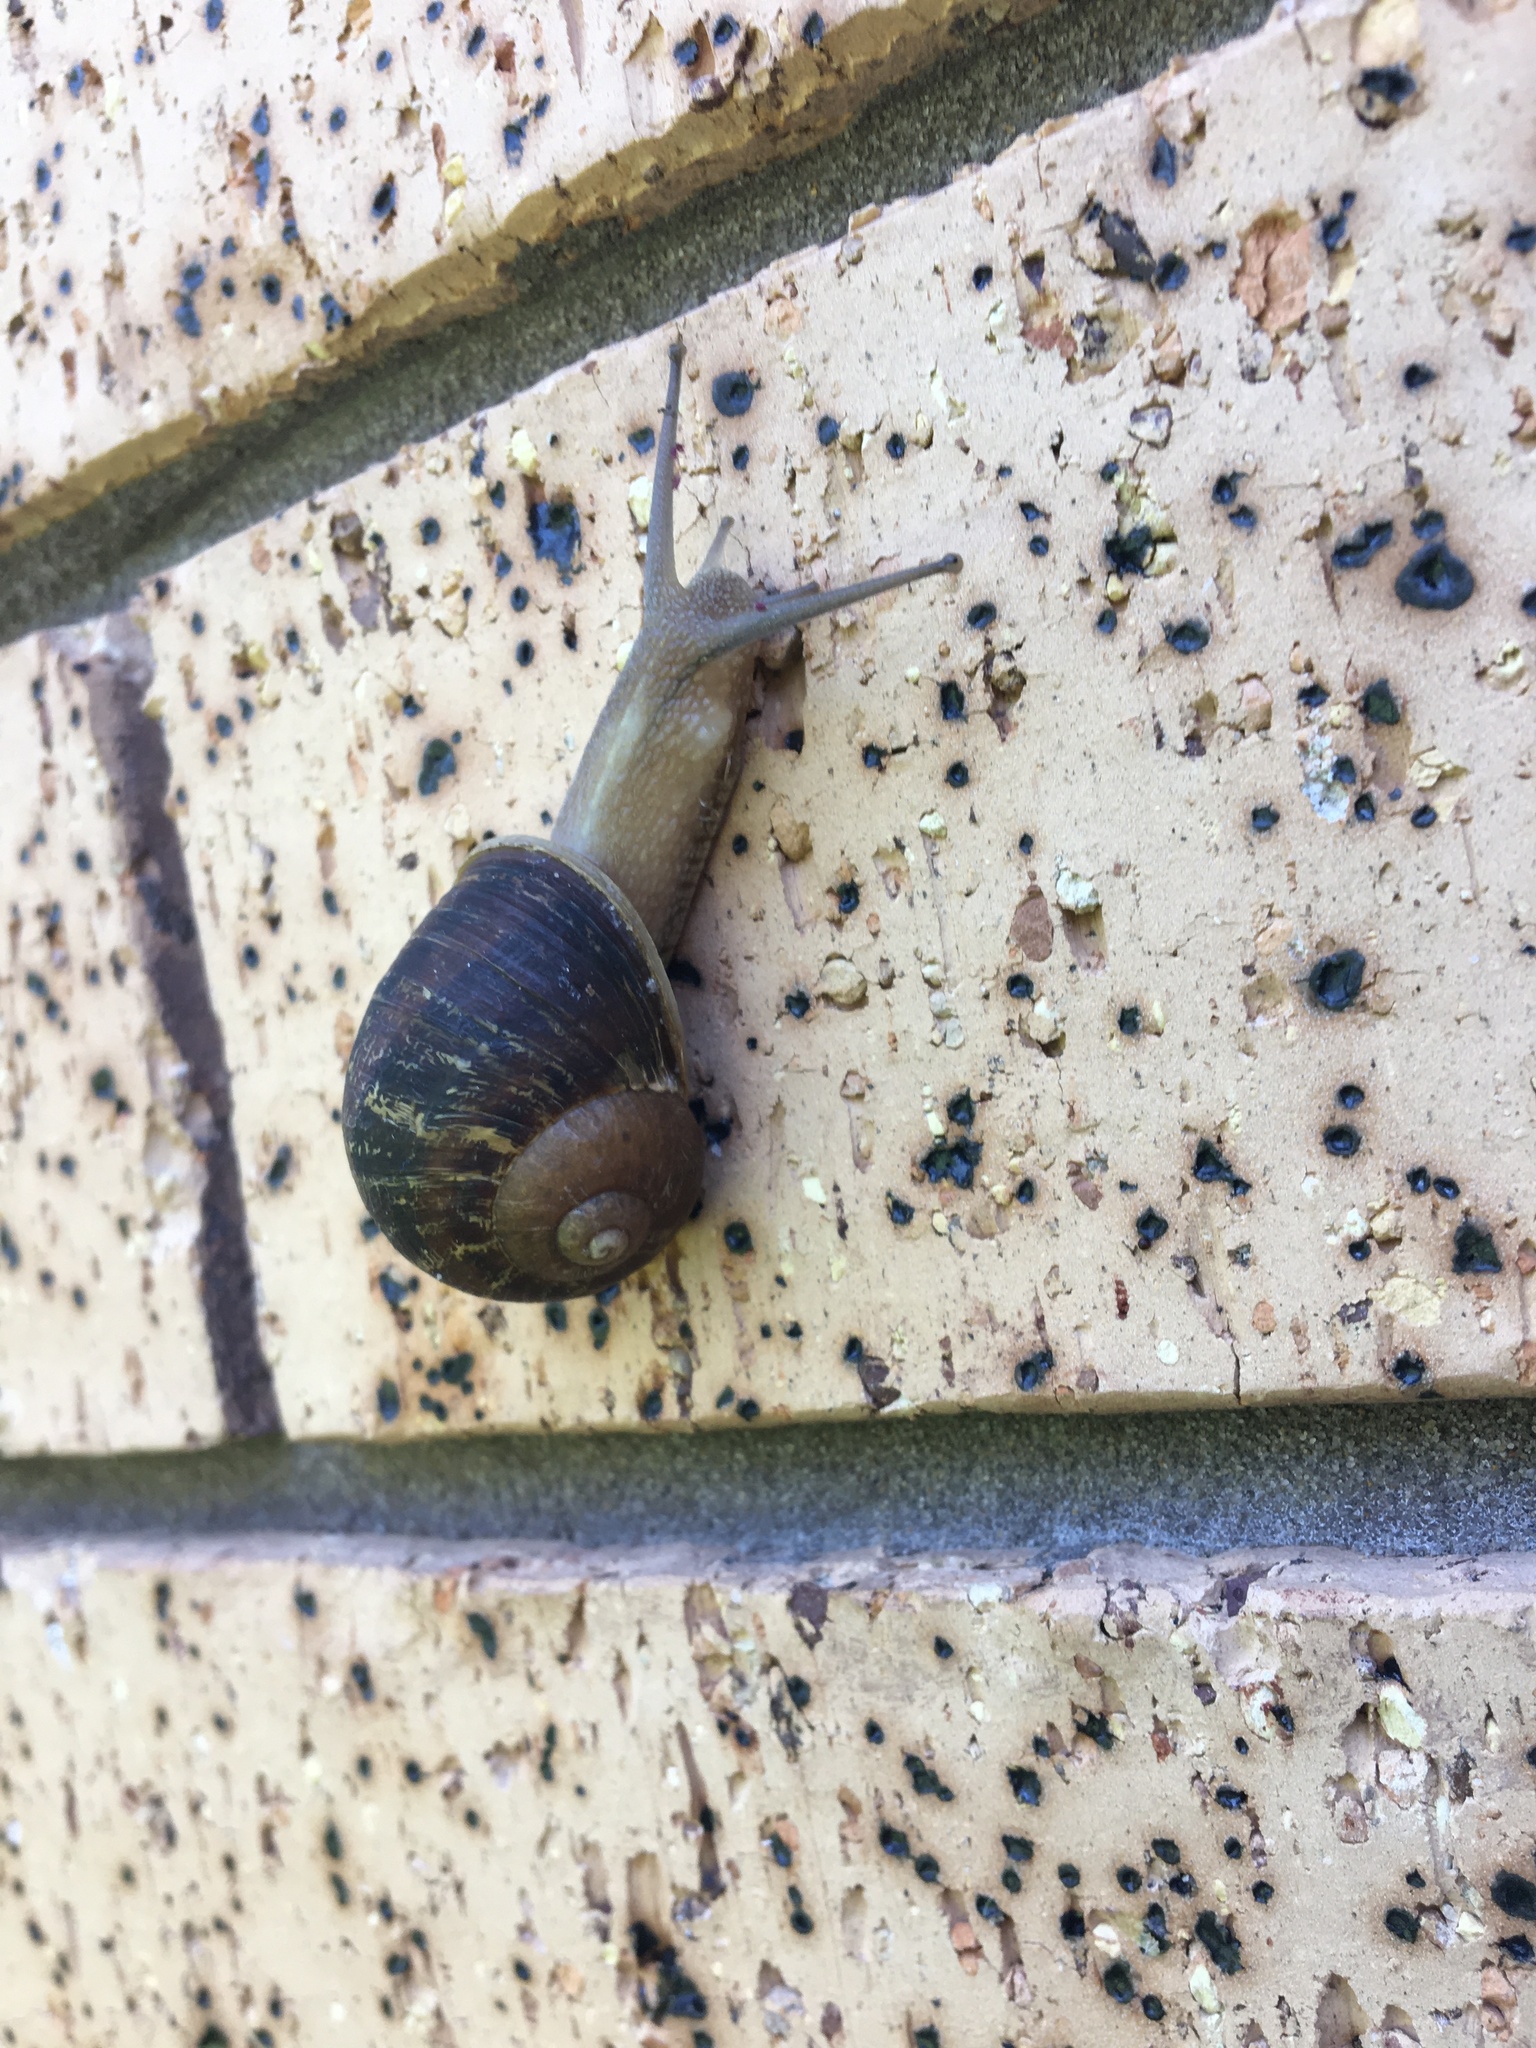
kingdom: Animalia
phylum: Mollusca
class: Gastropoda
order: Stylommatophora
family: Helicidae
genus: Cornu
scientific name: Cornu aspersum
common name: Brown garden snail
